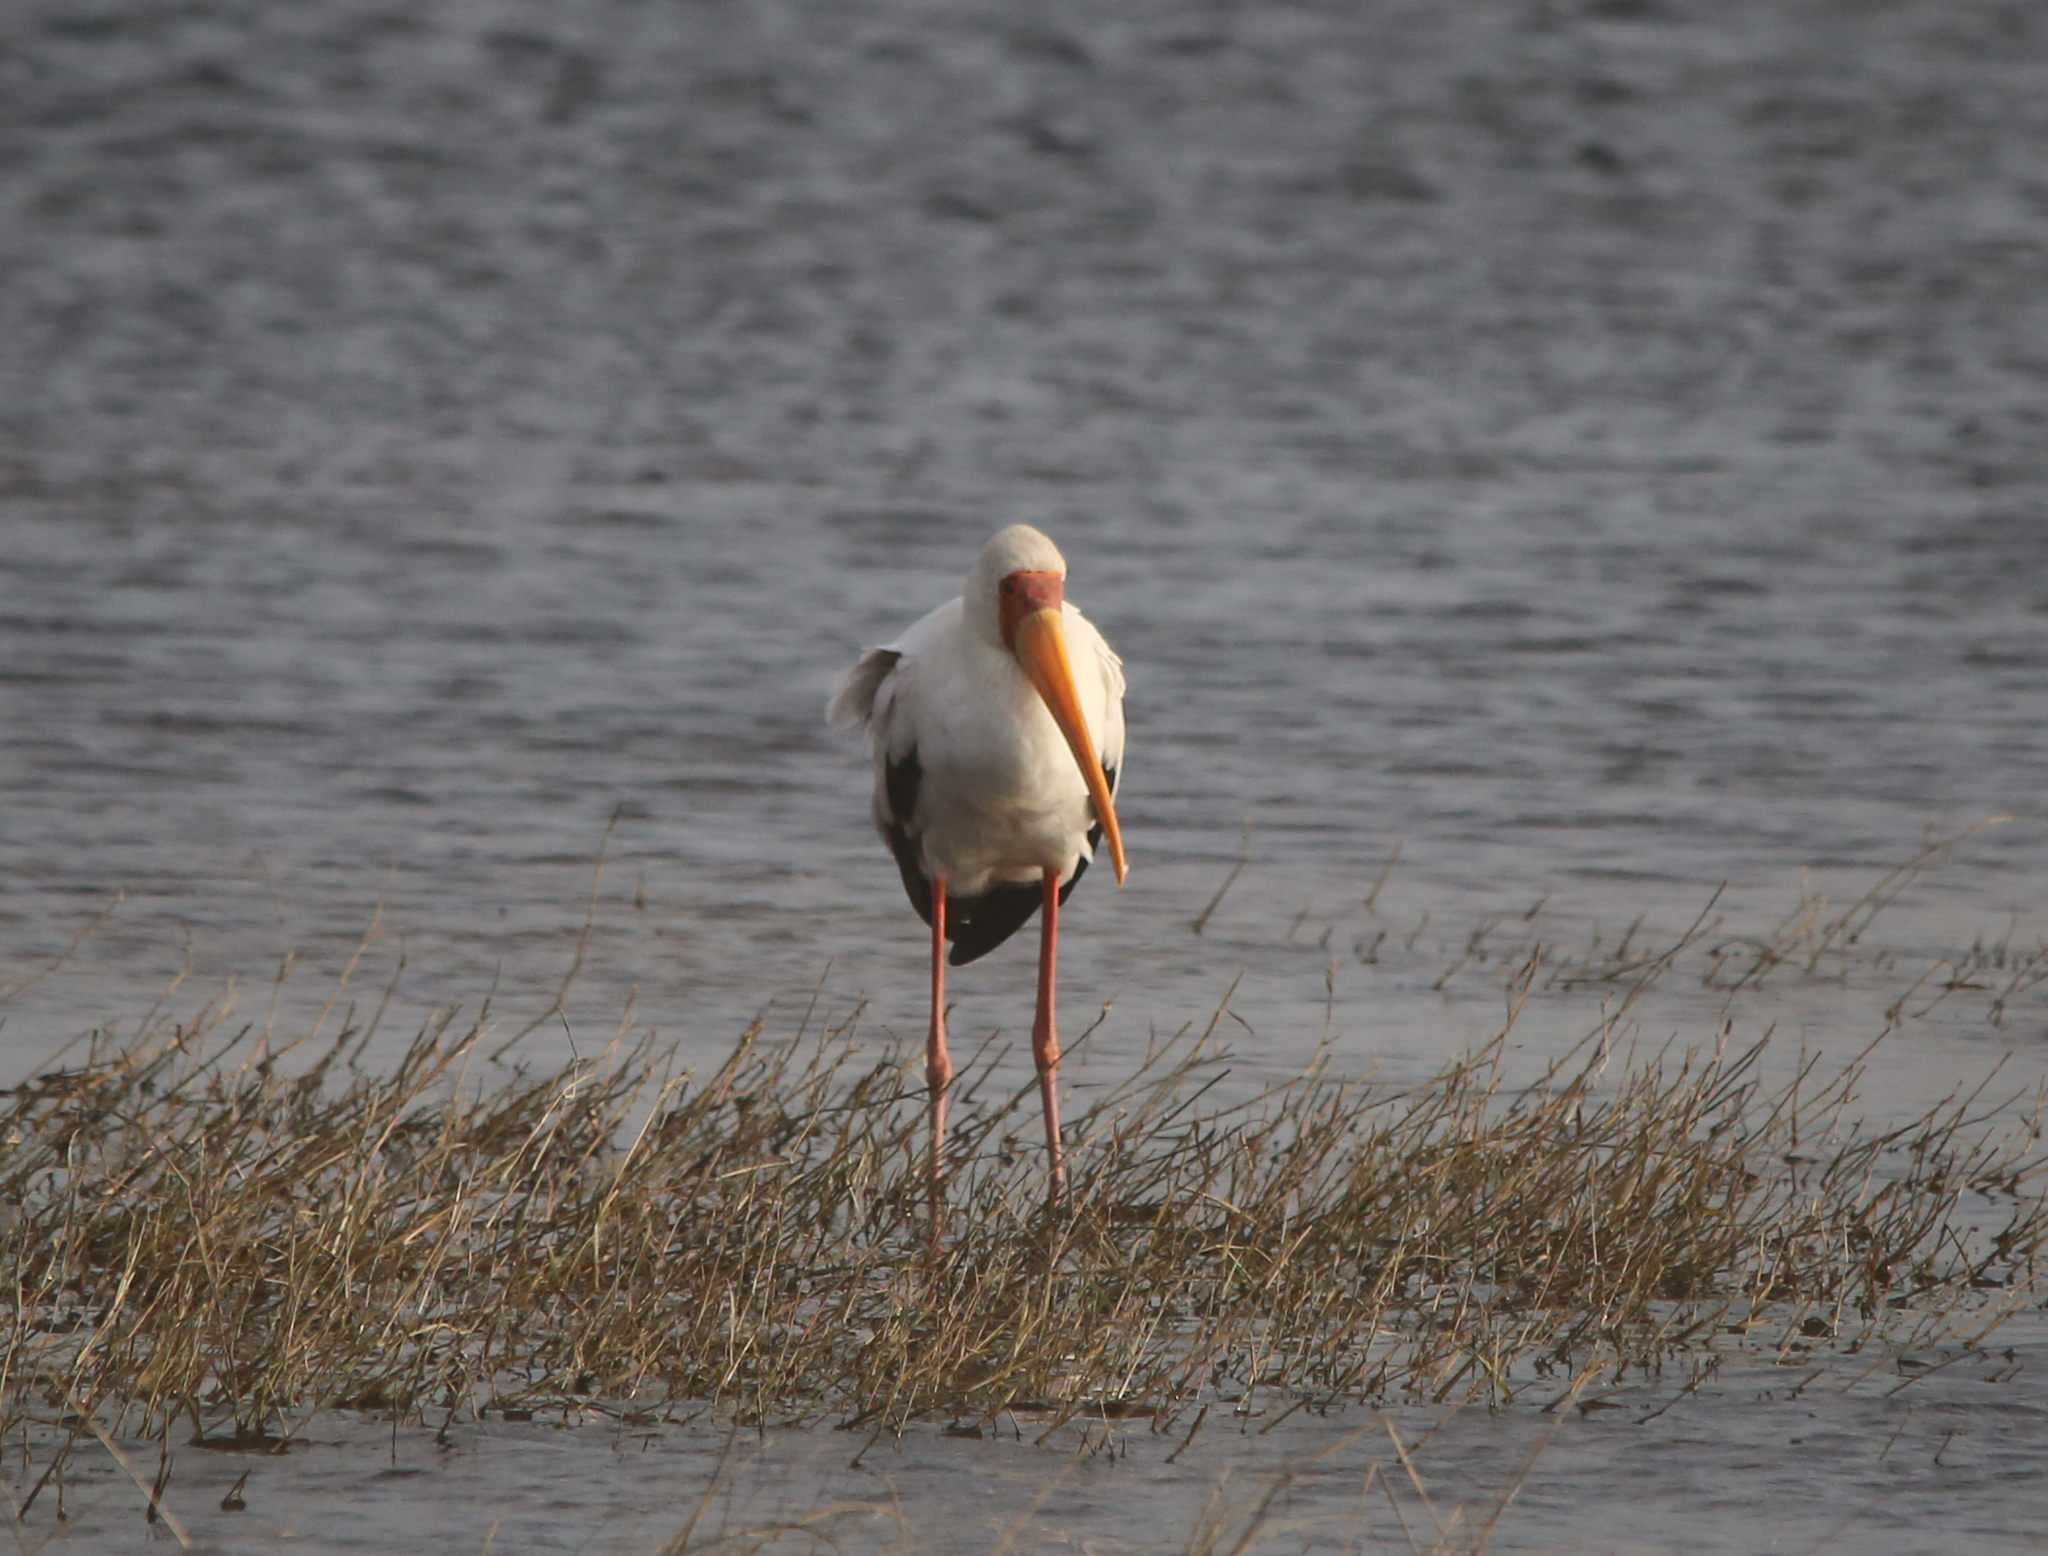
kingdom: Animalia
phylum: Chordata
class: Aves
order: Ciconiiformes
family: Ciconiidae
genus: Mycteria
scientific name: Mycteria ibis
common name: Yellow-billed stork
